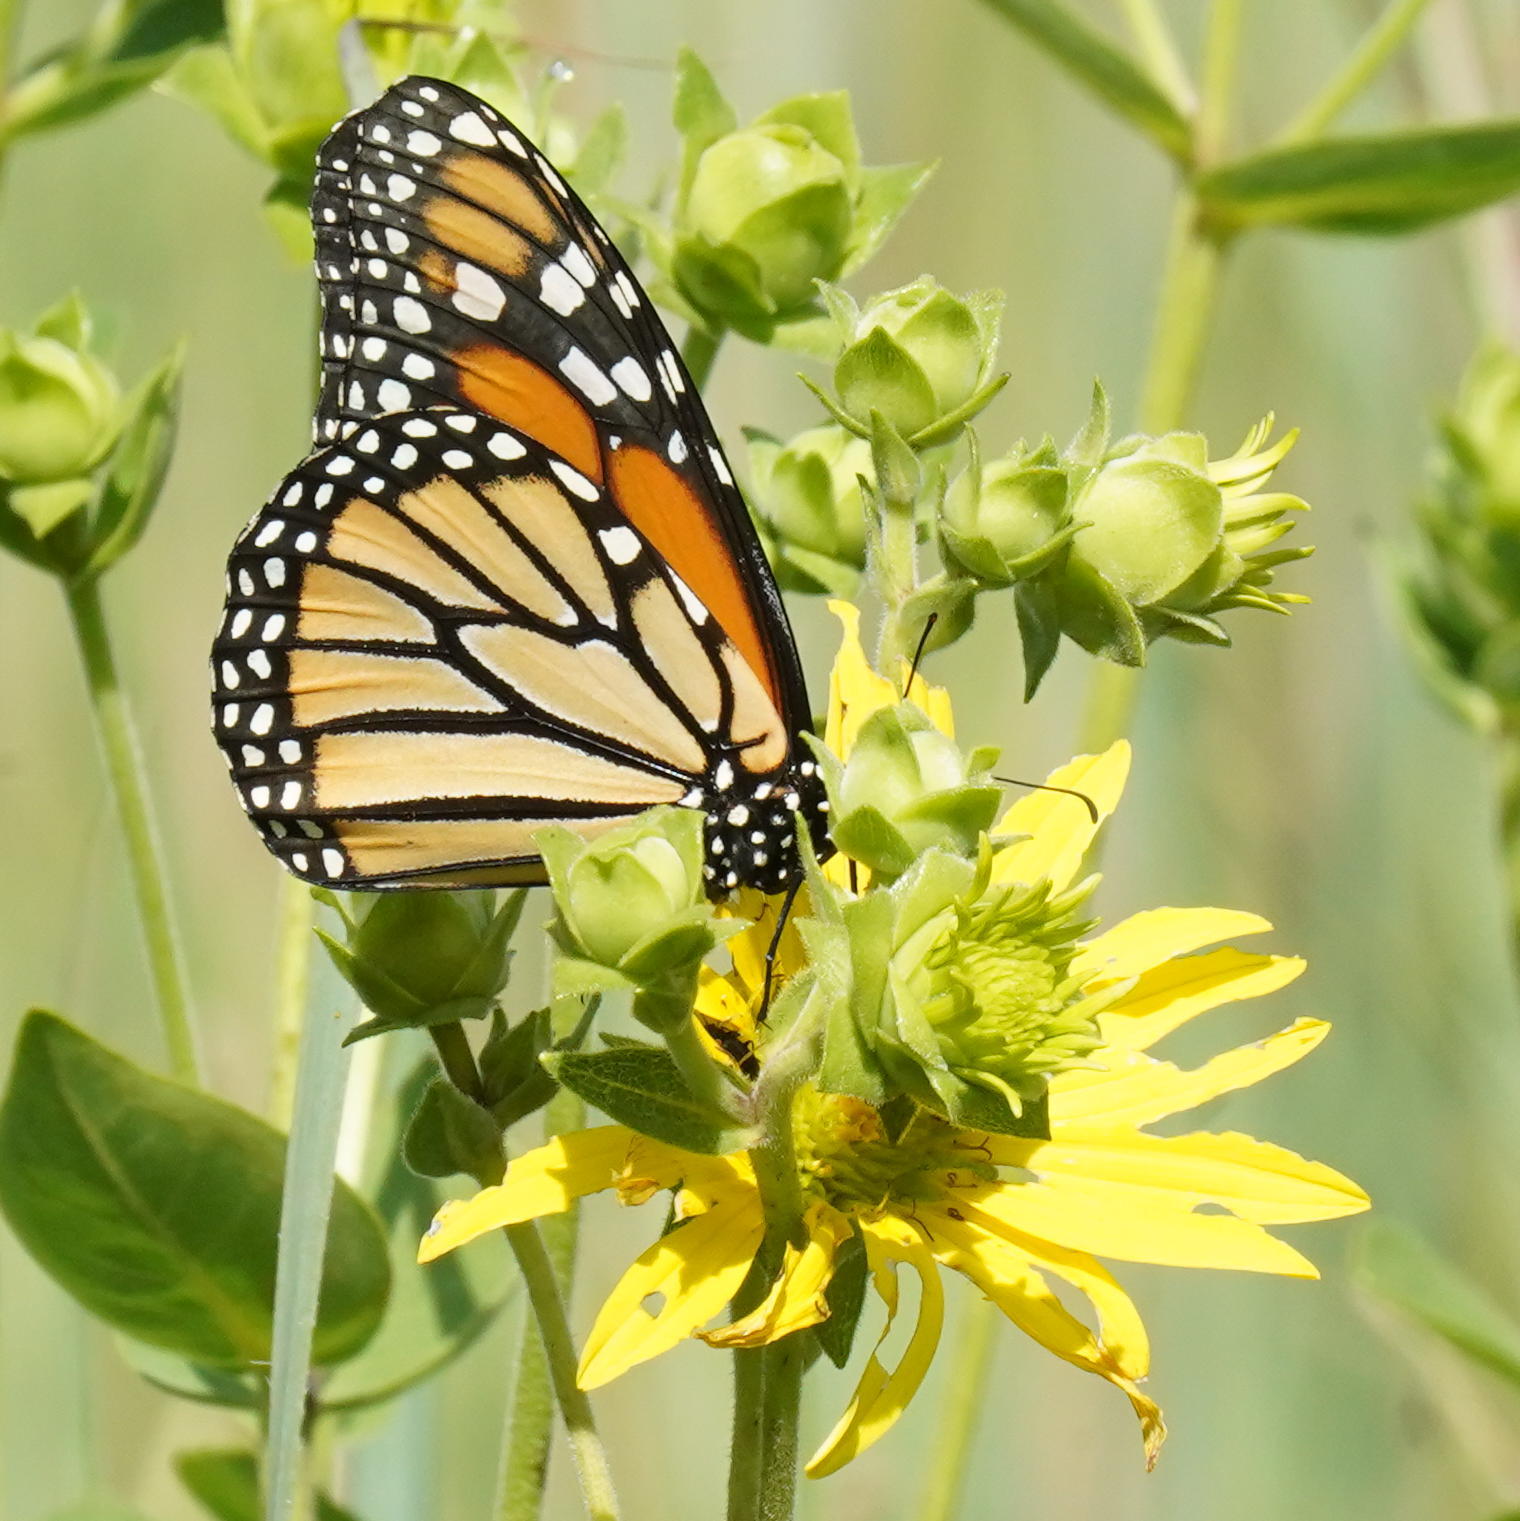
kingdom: Animalia
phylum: Arthropoda
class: Insecta
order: Lepidoptera
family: Nymphalidae
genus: Danaus
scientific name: Danaus plexippus
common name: Monarch
